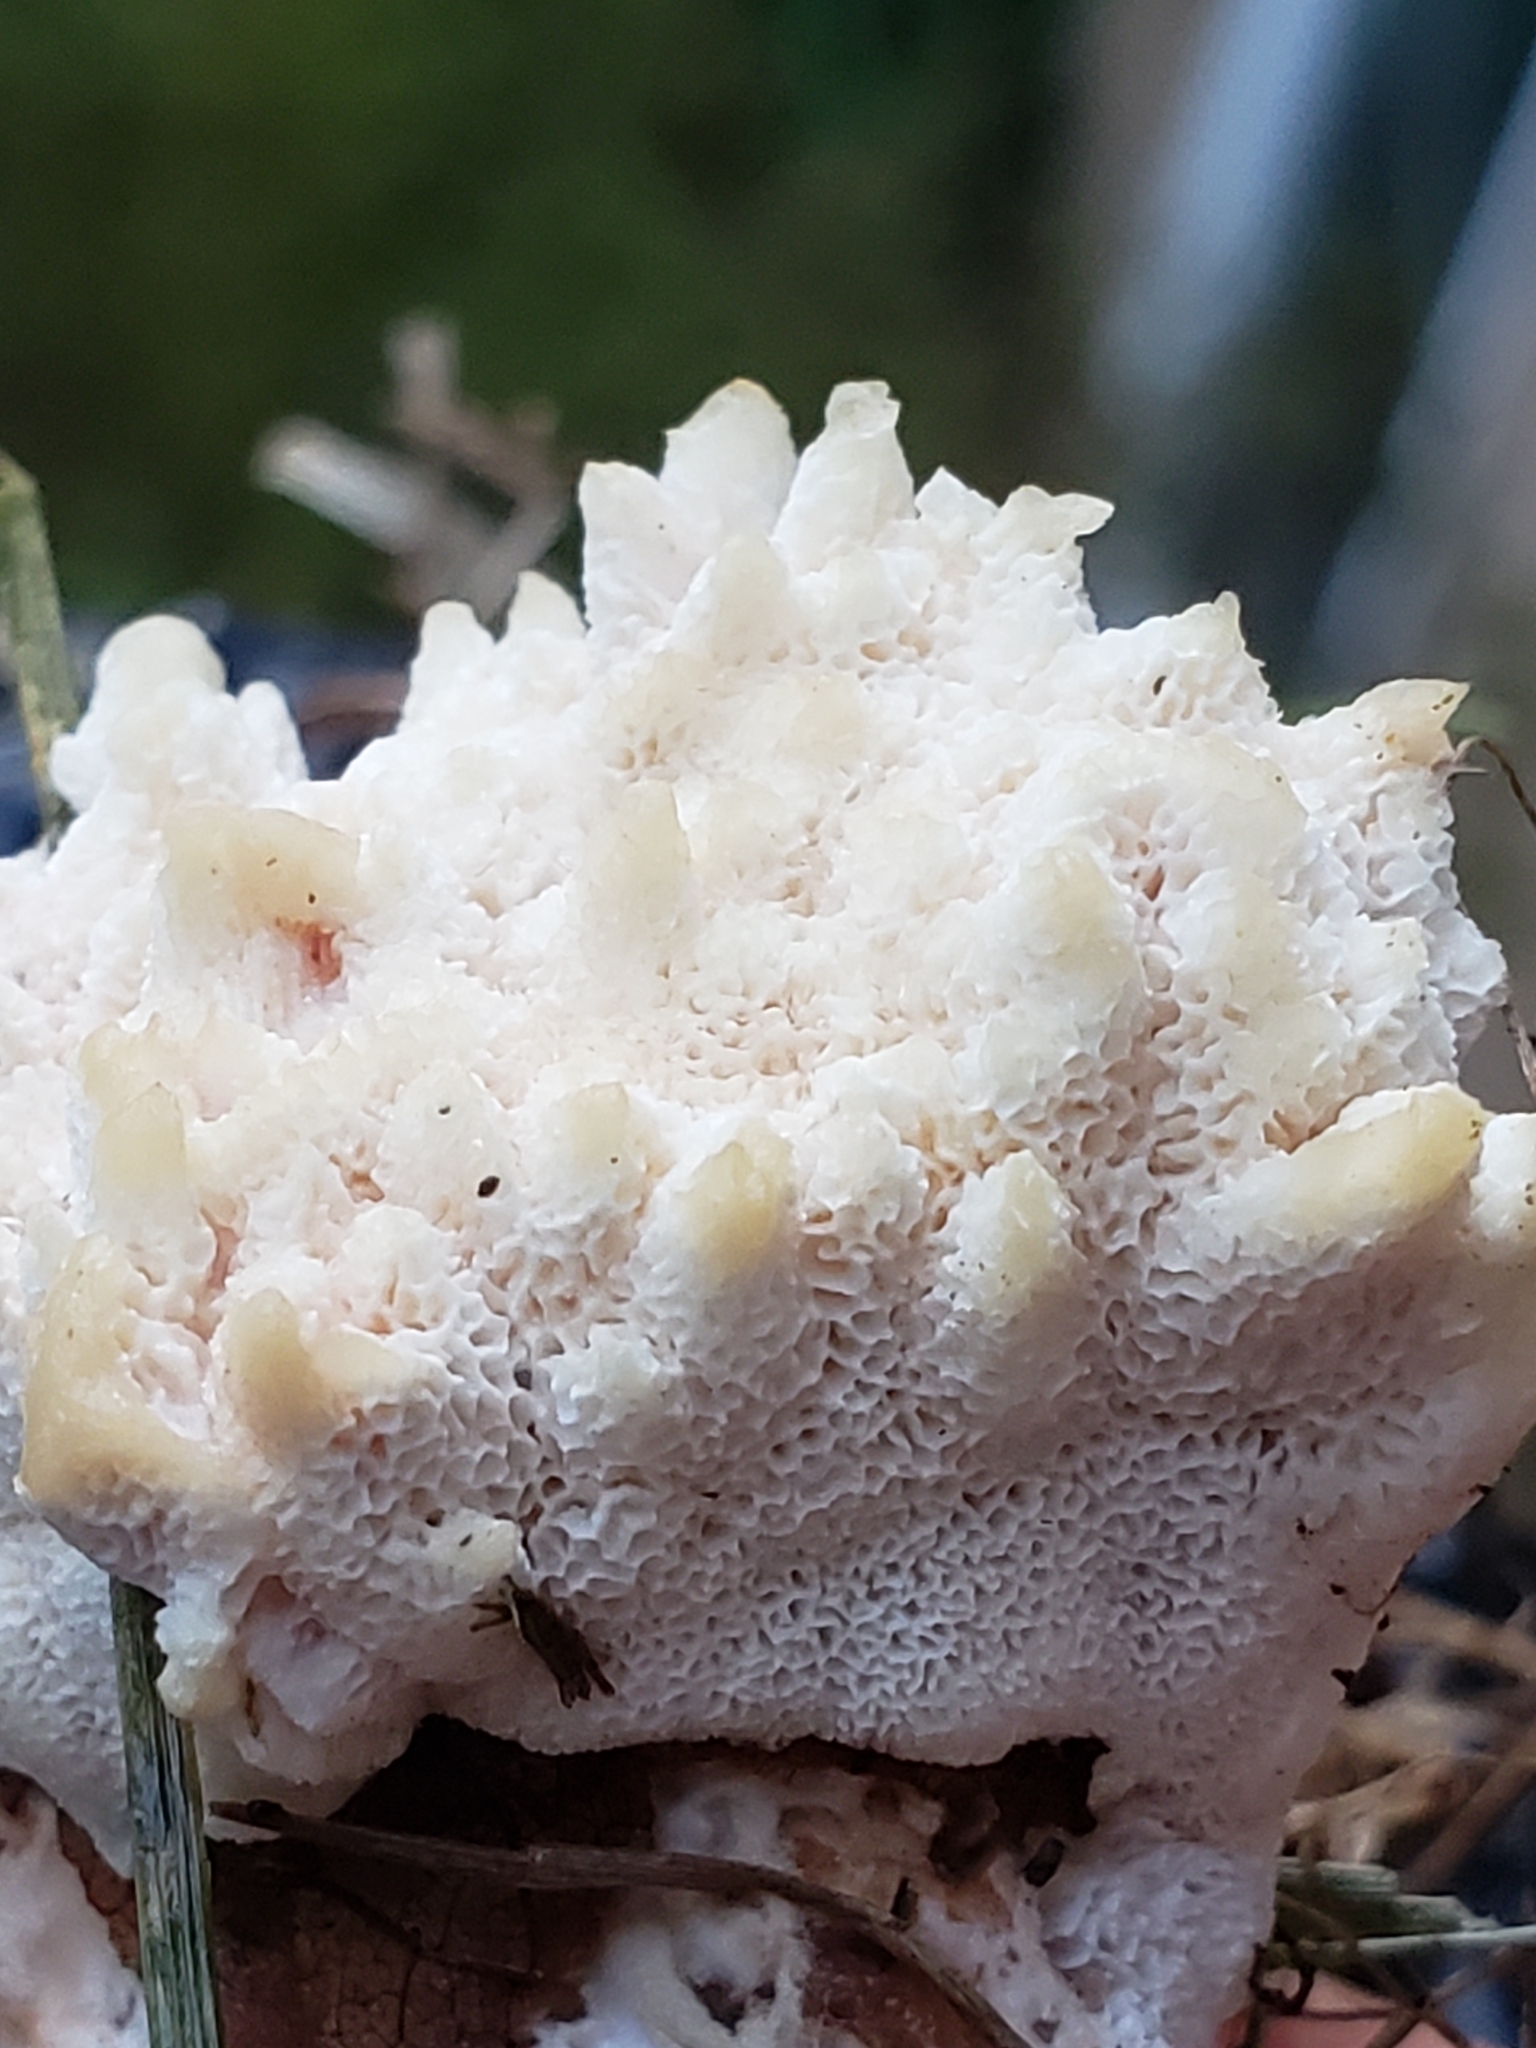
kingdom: Fungi
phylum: Basidiomycota
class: Agaricomycetes
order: Polyporales
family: Podoscyphaceae
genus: Abortiporus
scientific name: Abortiporus biennis
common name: Blushing rosette
